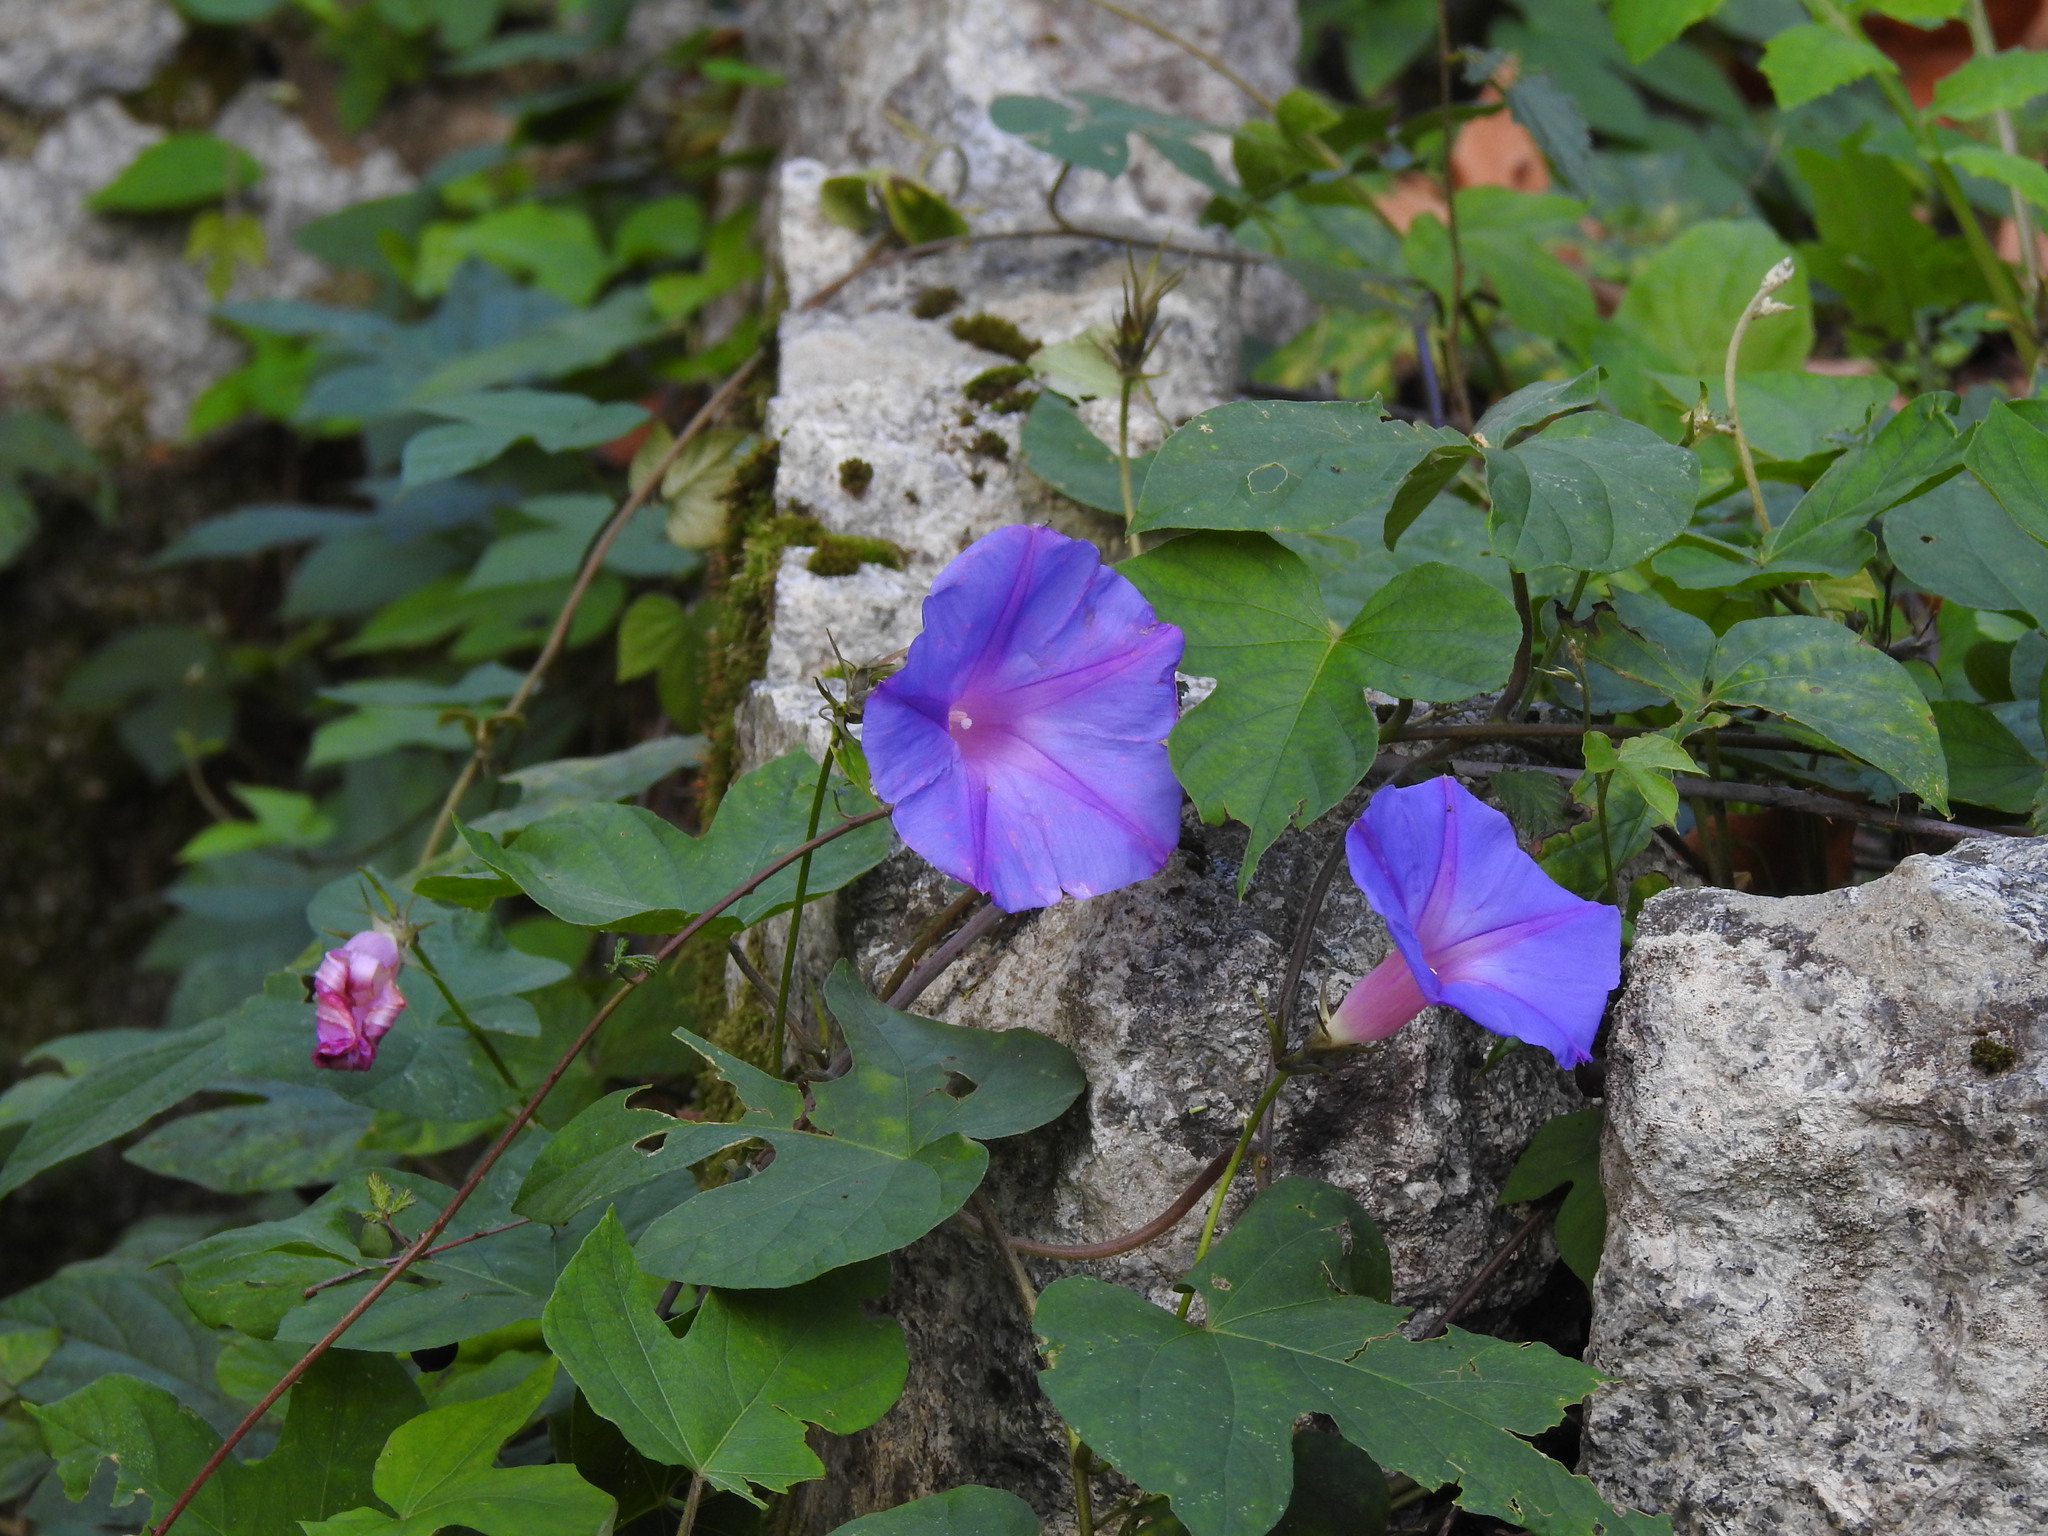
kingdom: Plantae
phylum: Tracheophyta
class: Magnoliopsida
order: Solanales
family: Convolvulaceae
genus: Ipomoea
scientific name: Ipomoea indica
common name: Blue dawnflower
